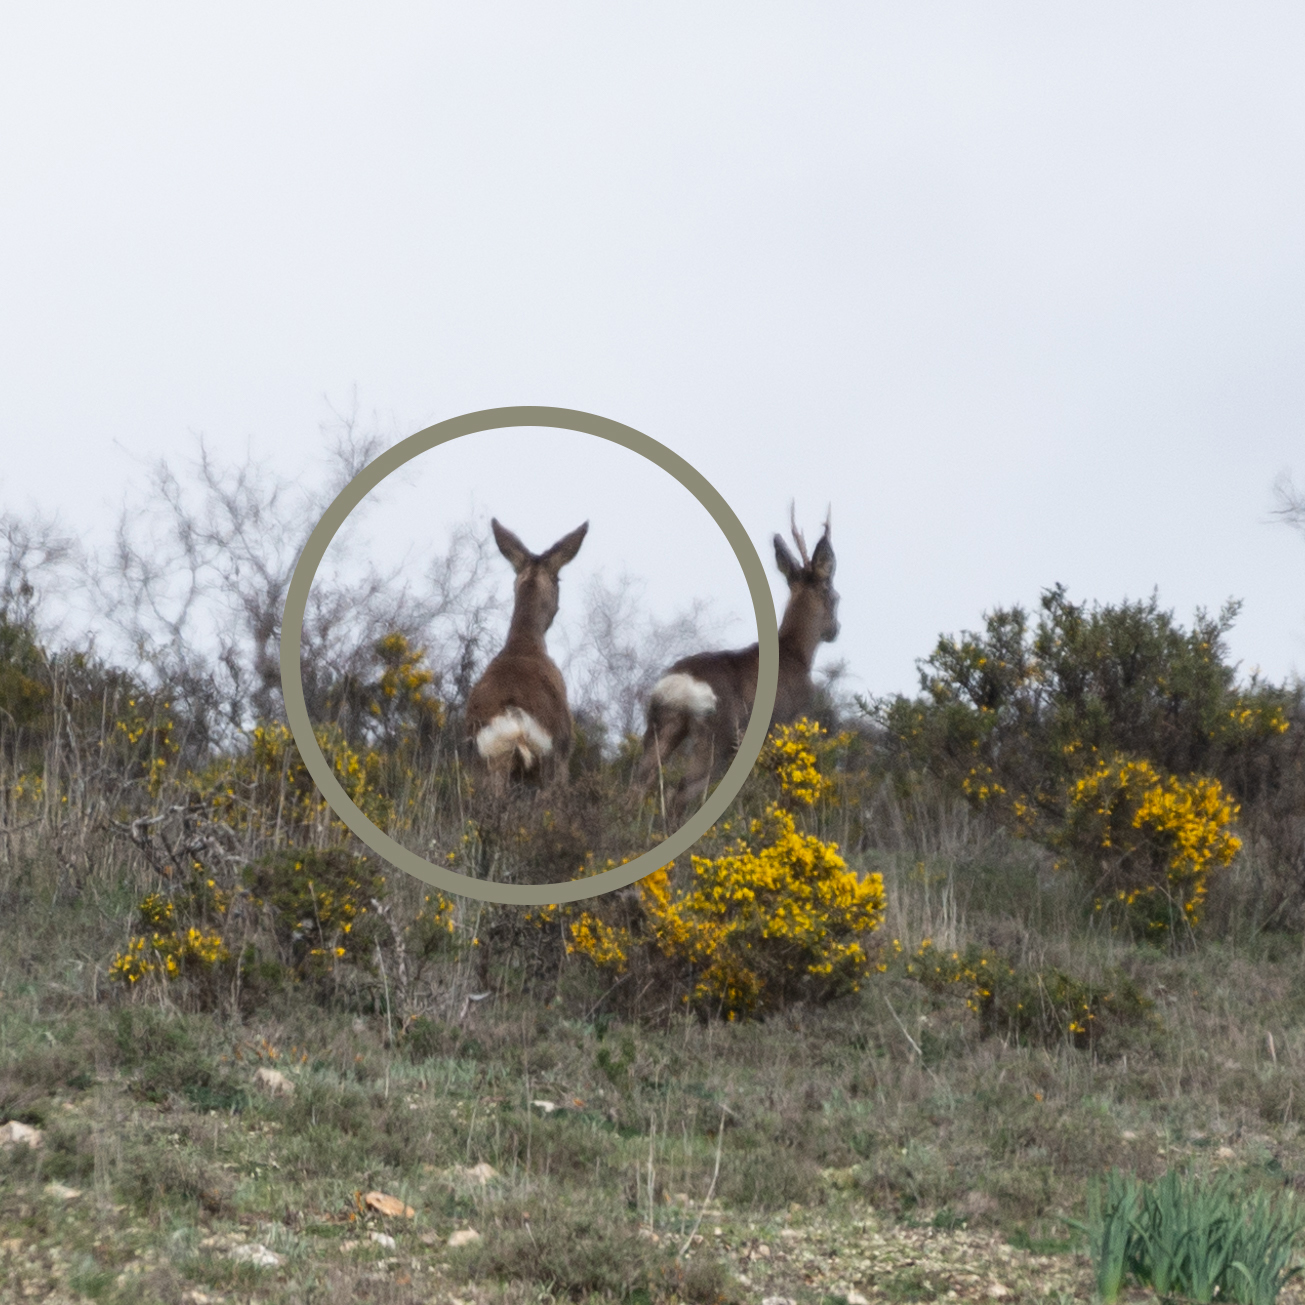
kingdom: Animalia
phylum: Chordata
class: Mammalia
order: Artiodactyla
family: Cervidae
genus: Capreolus
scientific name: Capreolus capreolus
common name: Western roe deer
